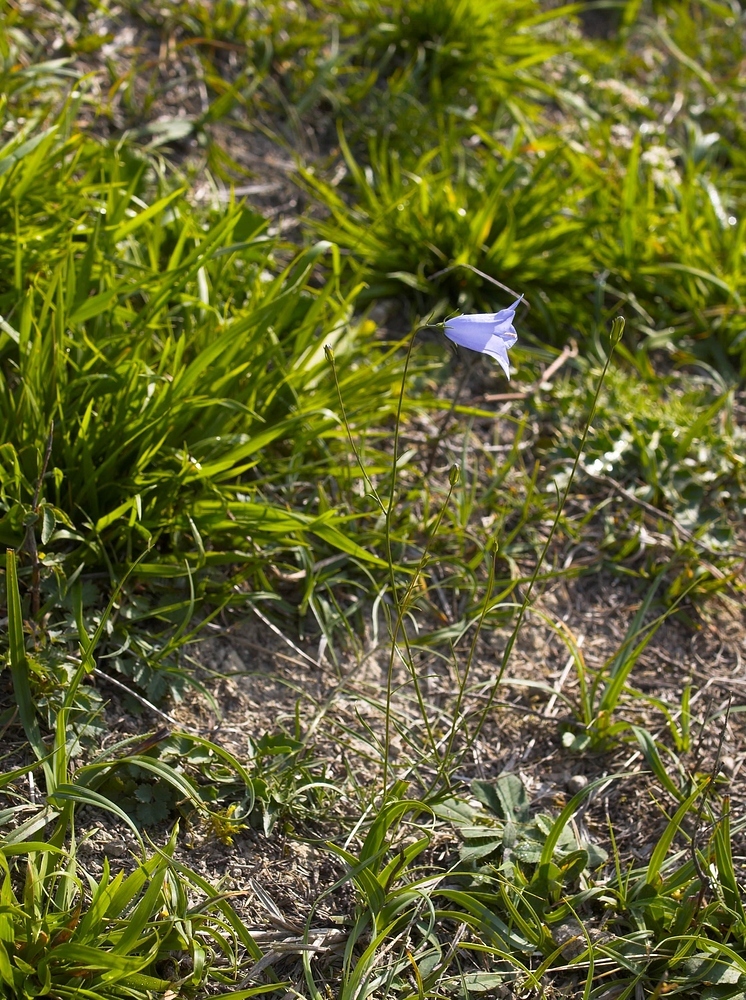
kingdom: Plantae
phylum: Tracheophyta
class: Magnoliopsida
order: Asterales
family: Campanulaceae
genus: Campanula
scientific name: Campanula rotundifolia
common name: Harebell
